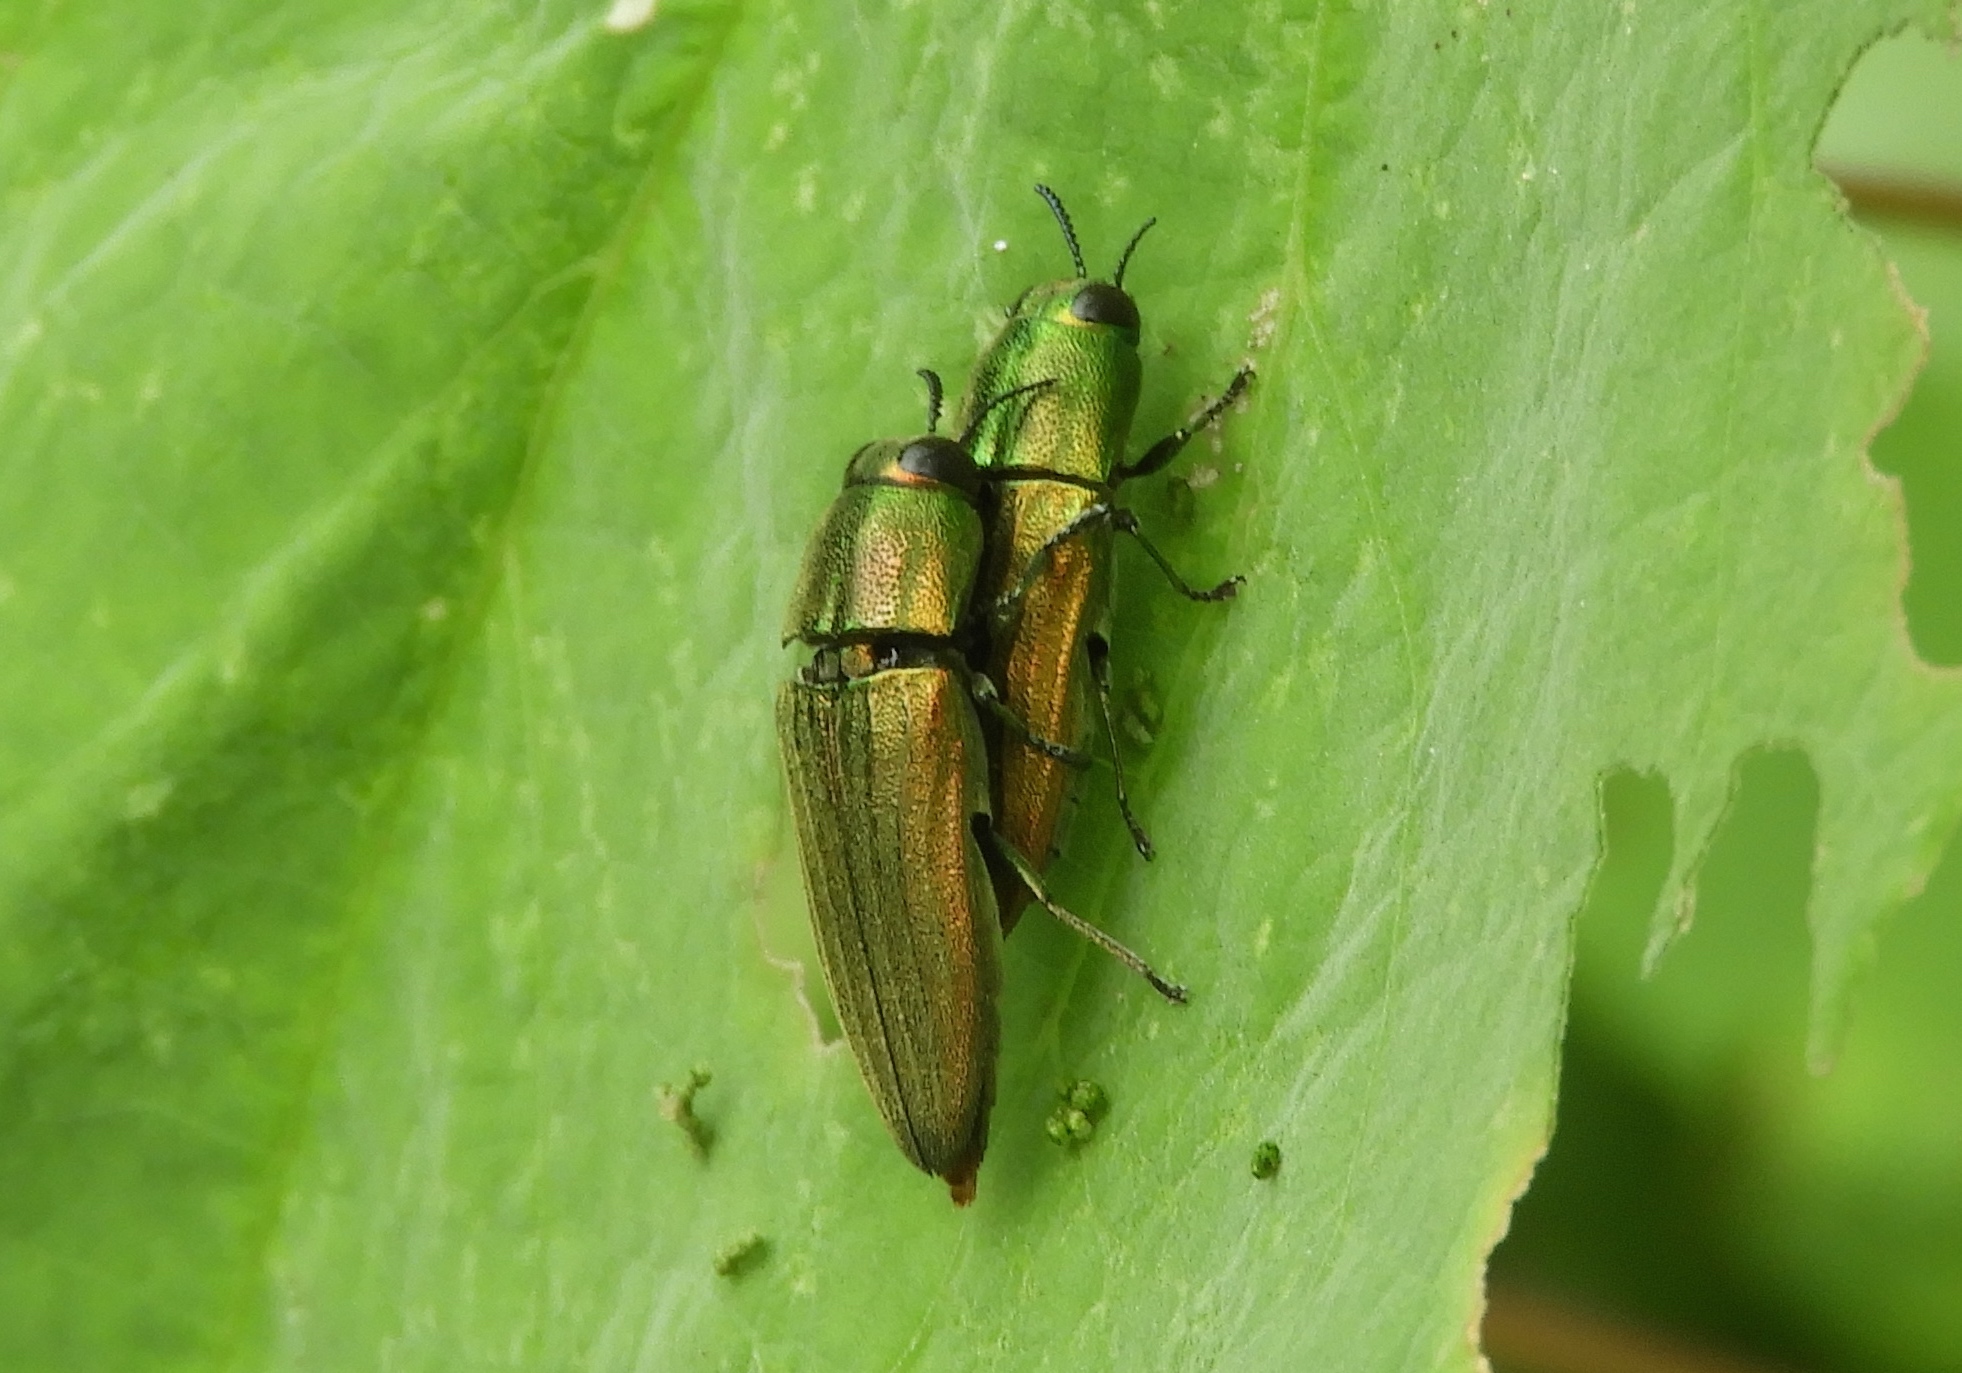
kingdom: Animalia
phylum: Arthropoda
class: Insecta
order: Coleoptera
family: Buprestidae
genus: Agaeocera
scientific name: Agaeocera scintillans
